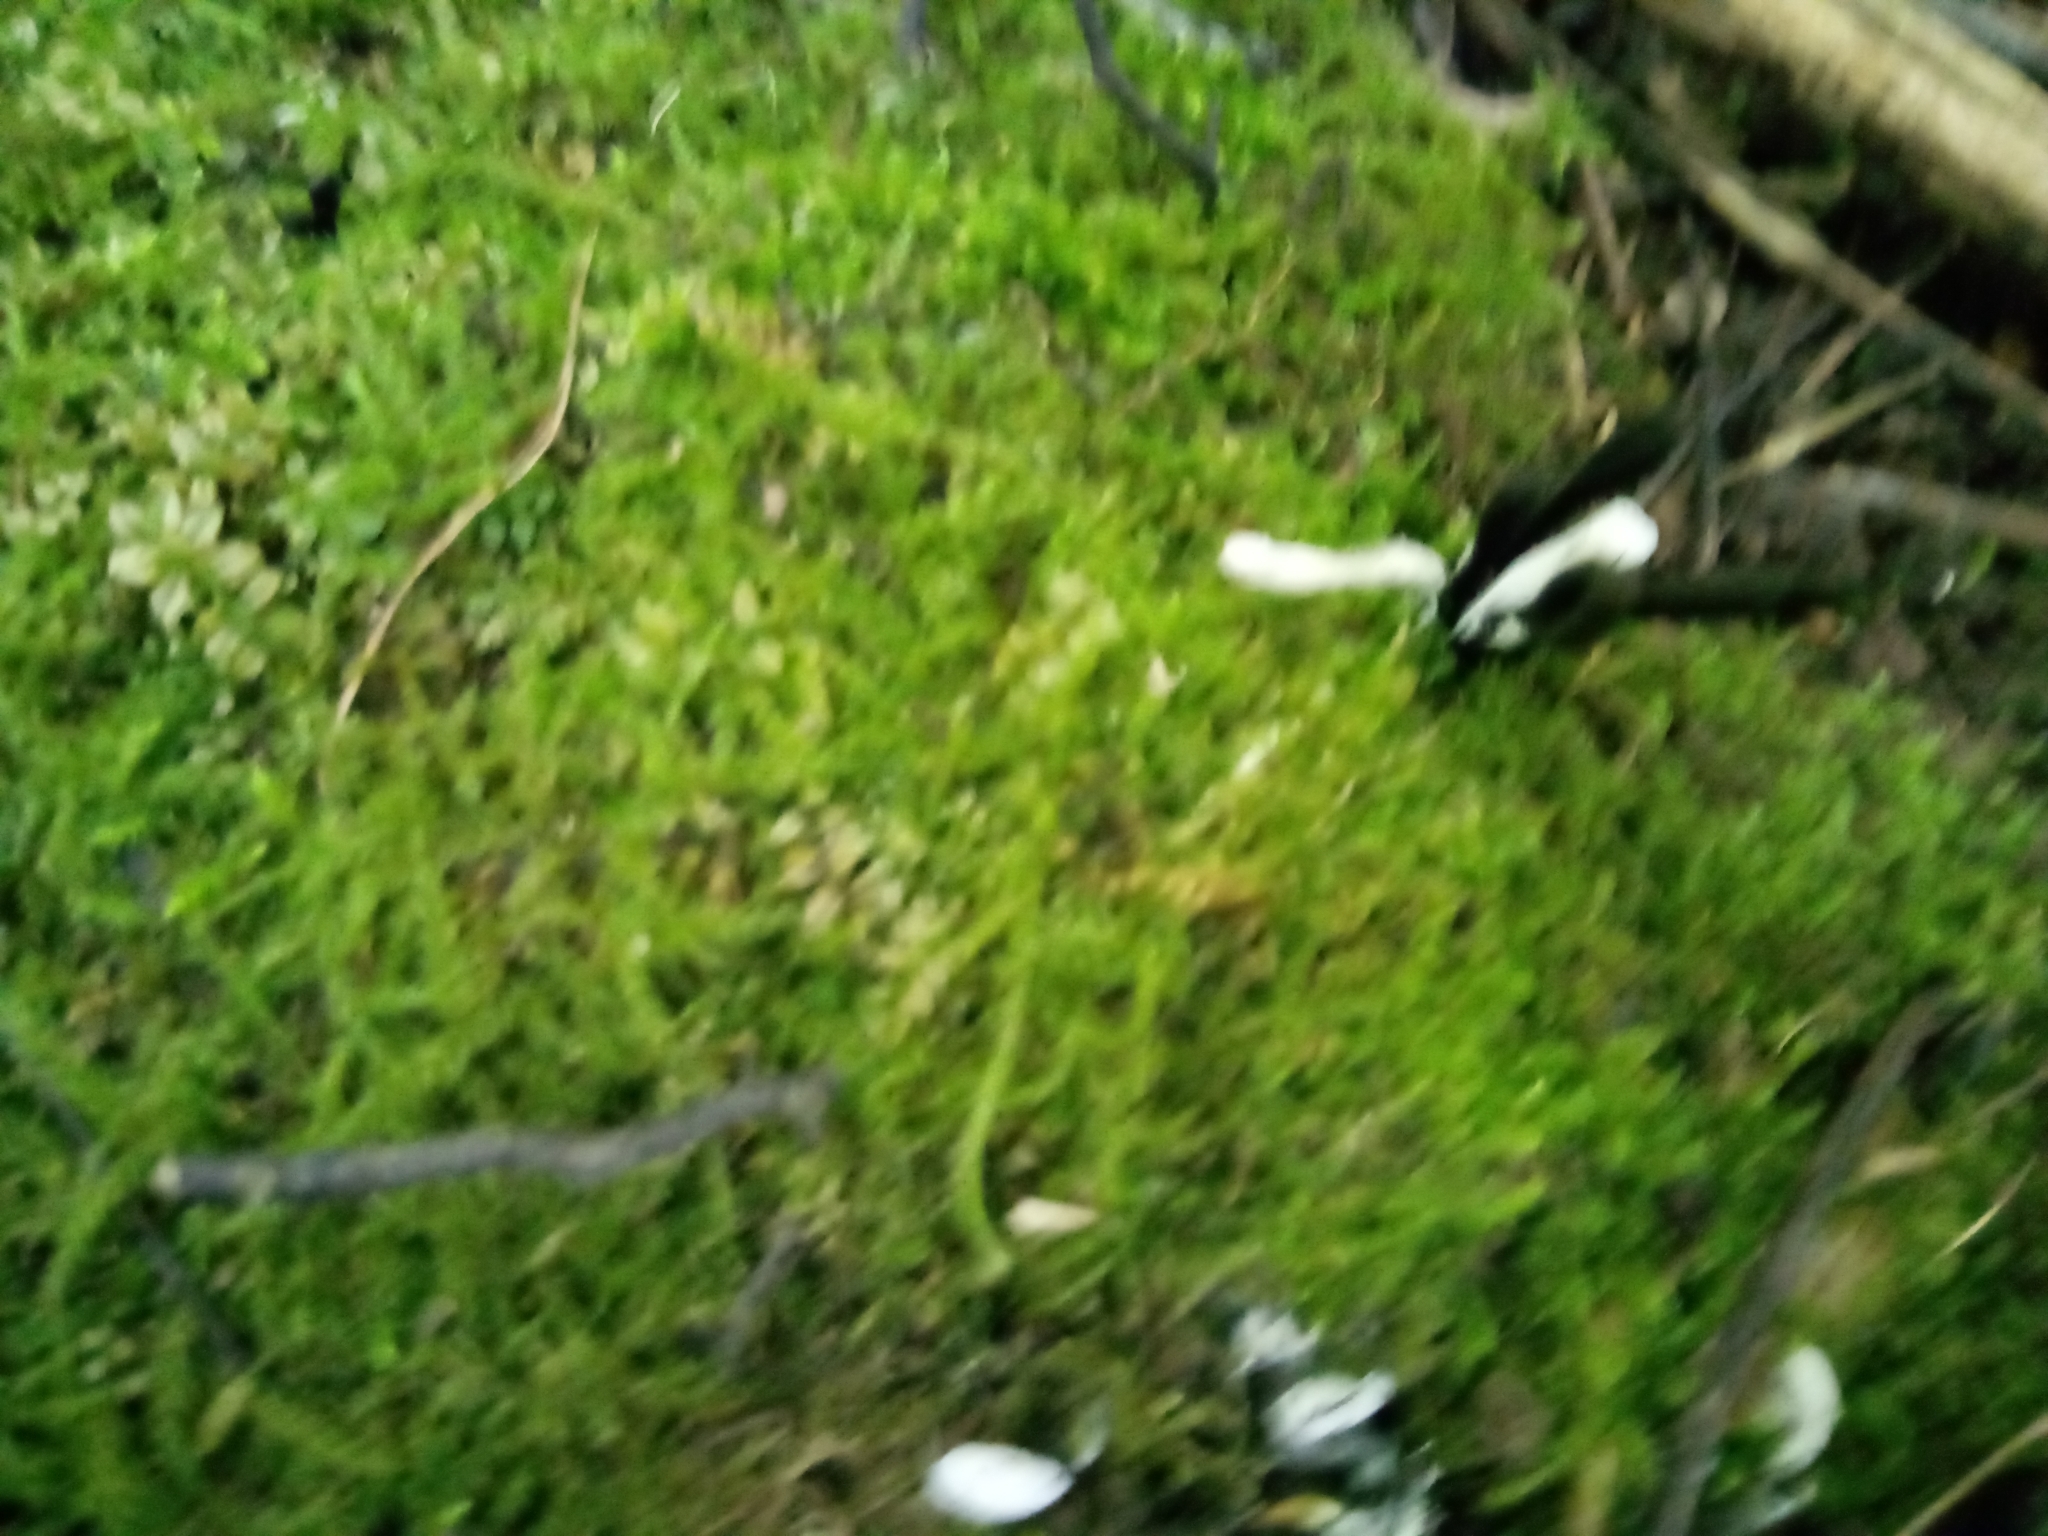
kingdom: Fungi
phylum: Ascomycota
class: Sordariomycetes
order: Hypocreales
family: Hypocreaceae
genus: Hypomyces
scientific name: Hypomyces papulasporae
